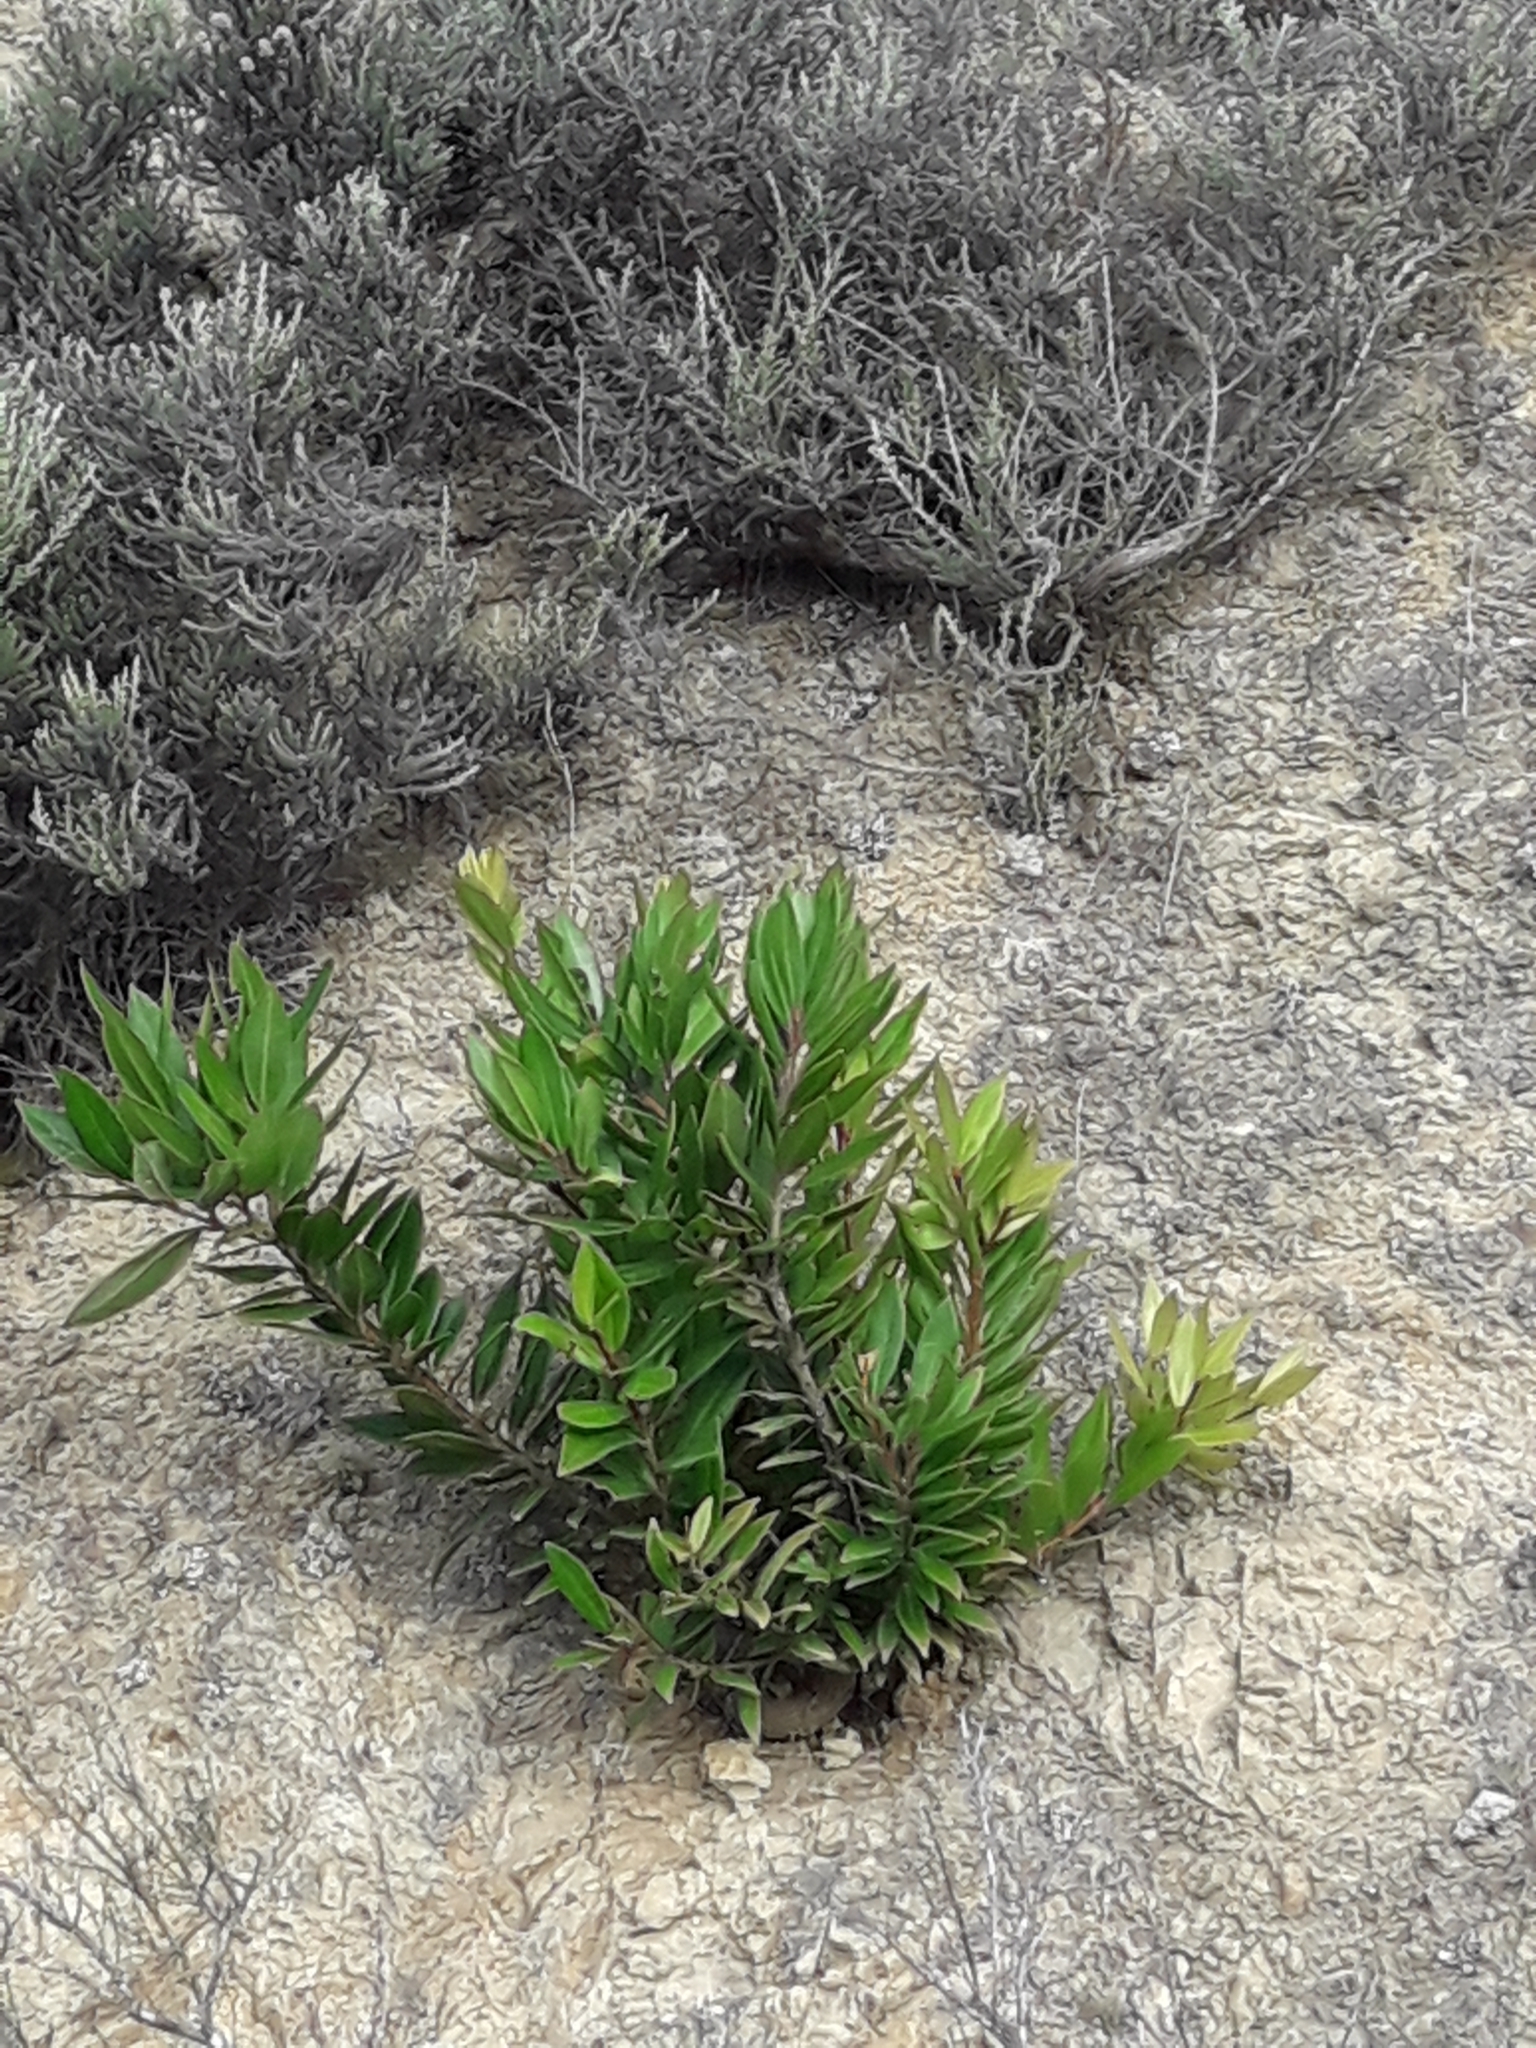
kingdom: Plantae
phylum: Tracheophyta
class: Magnoliopsida
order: Myrtales
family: Myrtaceae
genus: Metrosideros
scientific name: Metrosideros excelsa
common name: New zealand christmastree
